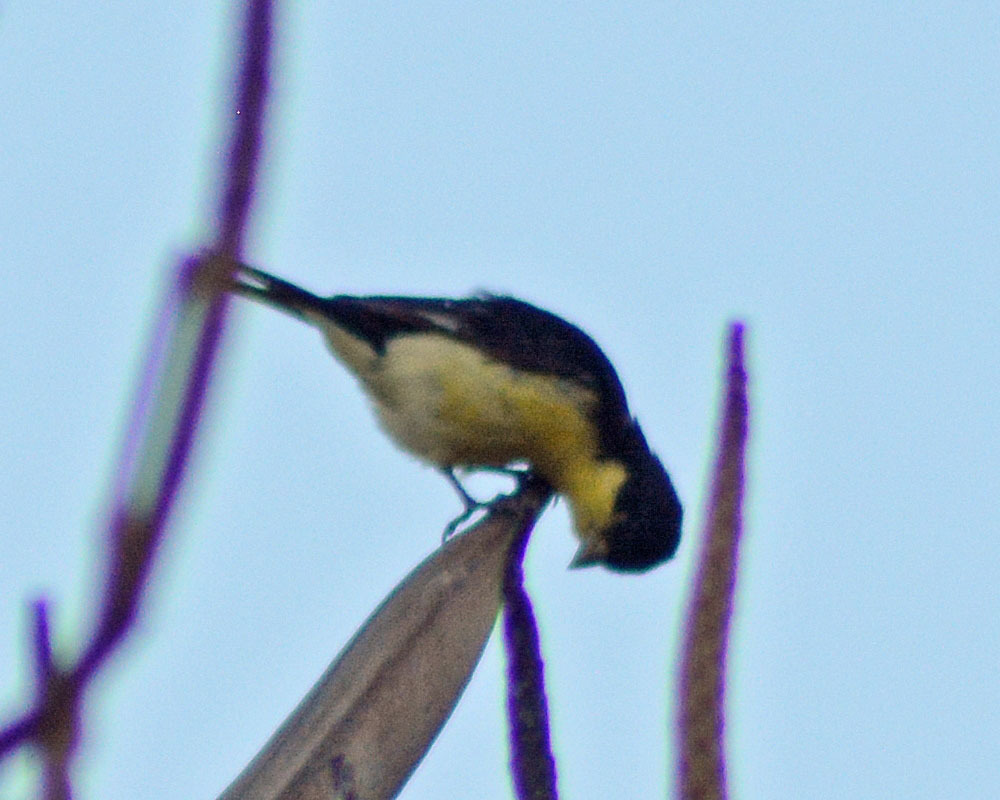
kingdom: Animalia
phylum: Chordata
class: Aves
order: Passeriformes
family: Fringillidae
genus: Spinus
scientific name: Spinus psaltria
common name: Lesser goldfinch
